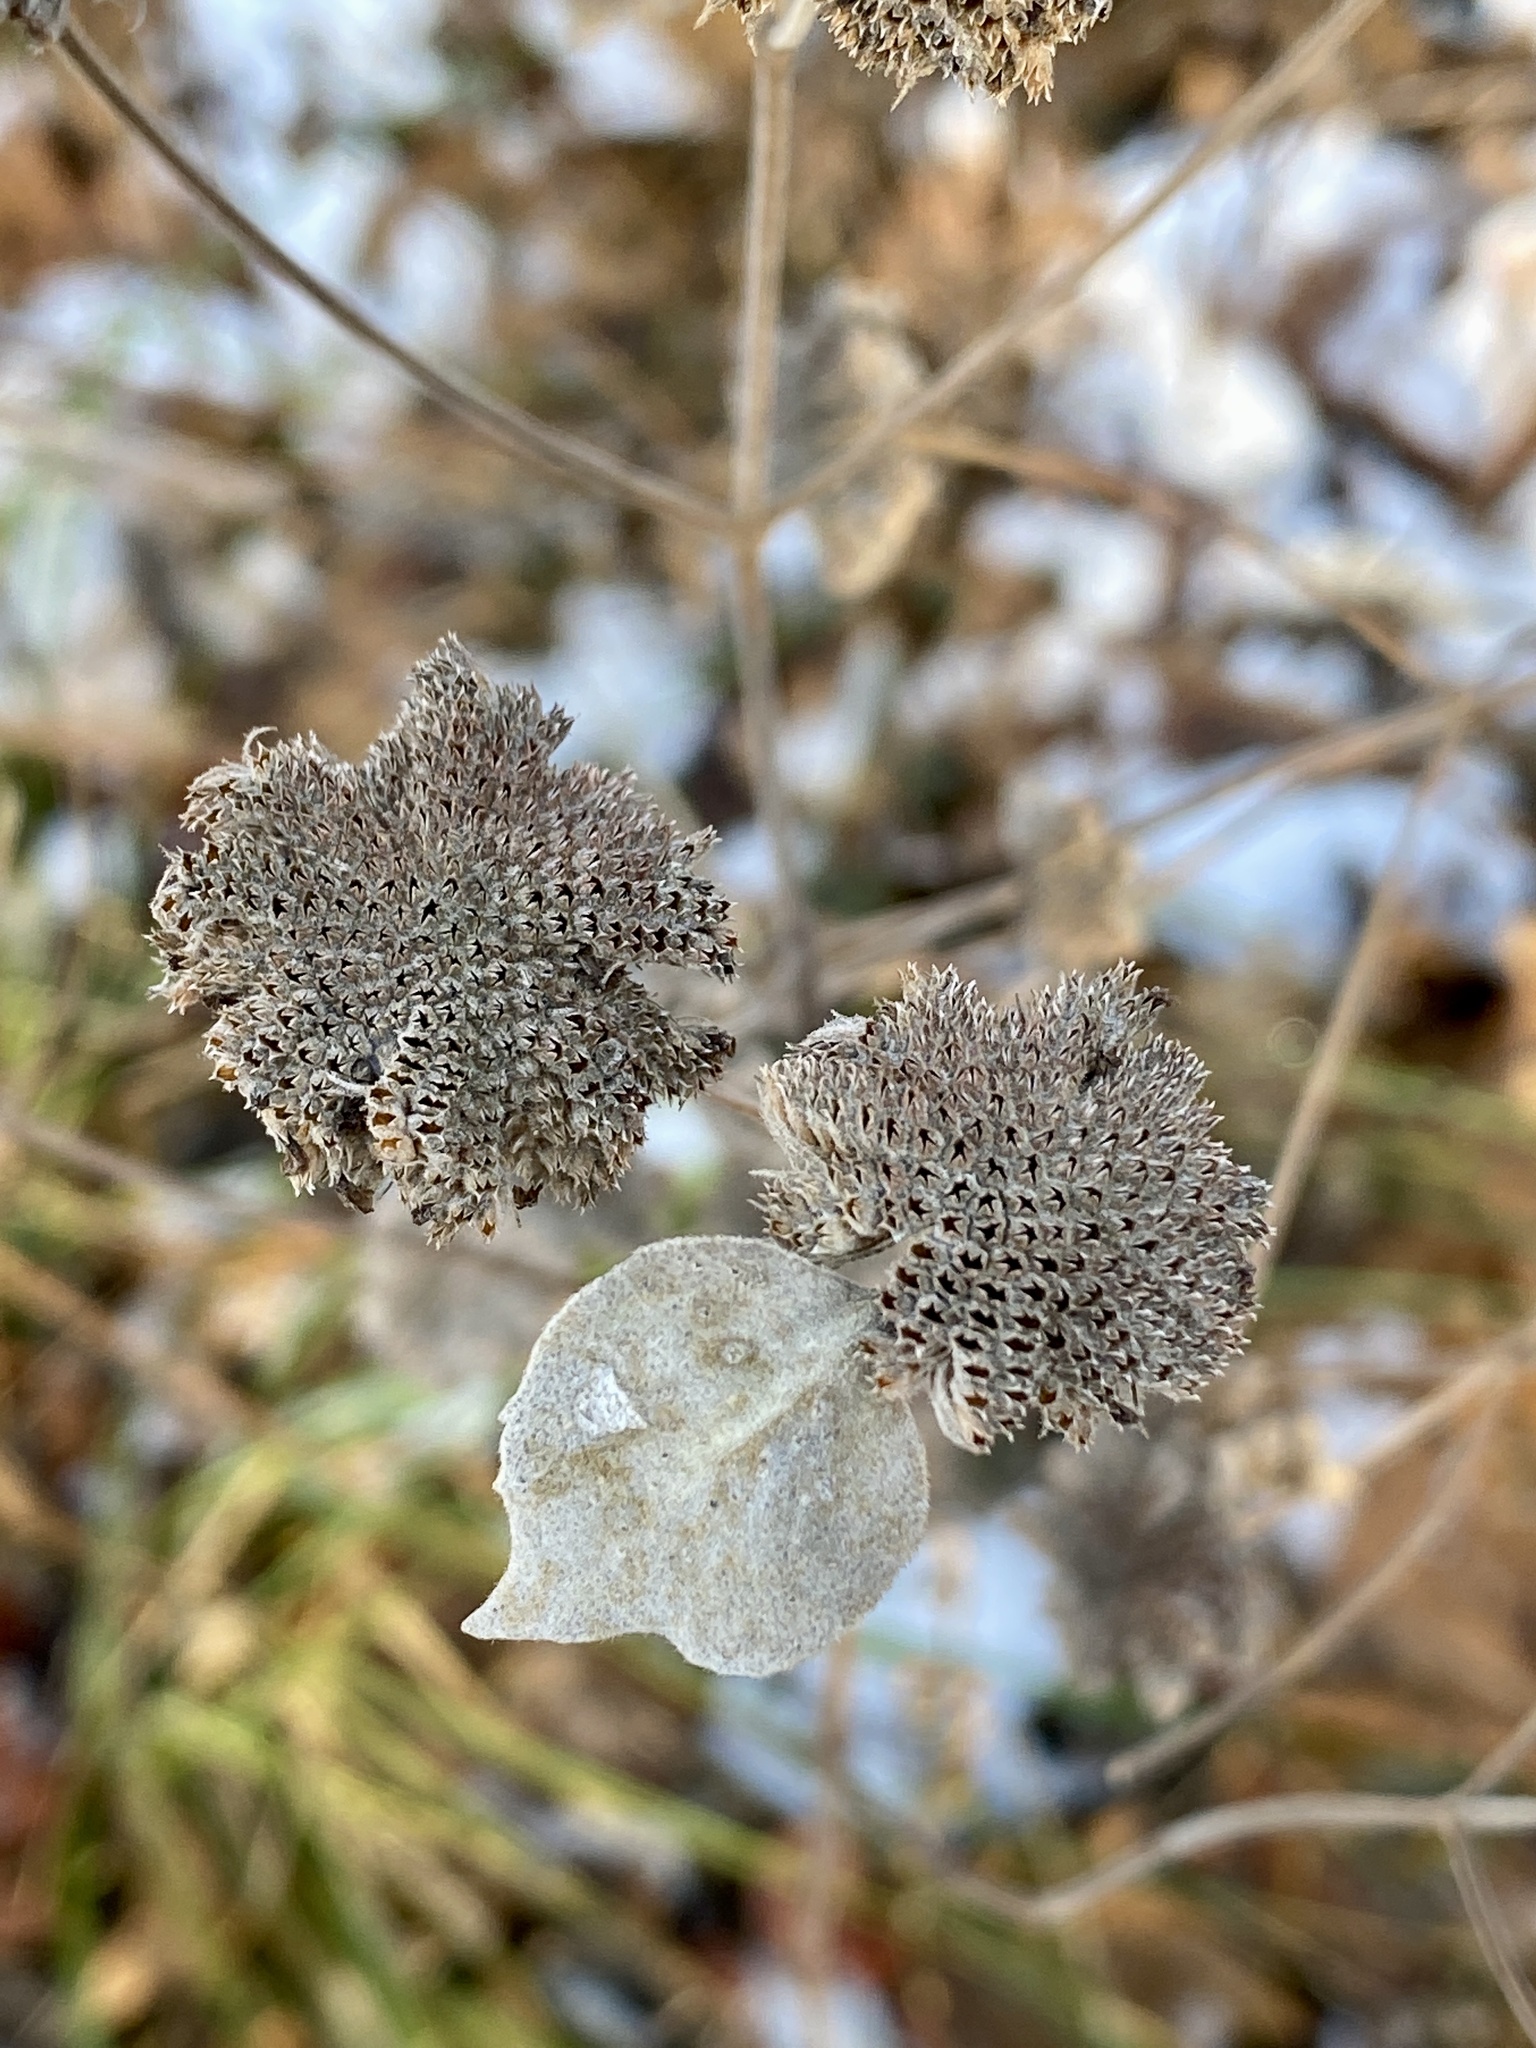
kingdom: Plantae
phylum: Tracheophyta
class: Magnoliopsida
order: Lamiales
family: Lamiaceae
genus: Pycnanthemum
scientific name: Pycnanthemum muticum
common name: Blunt mountain-mint
